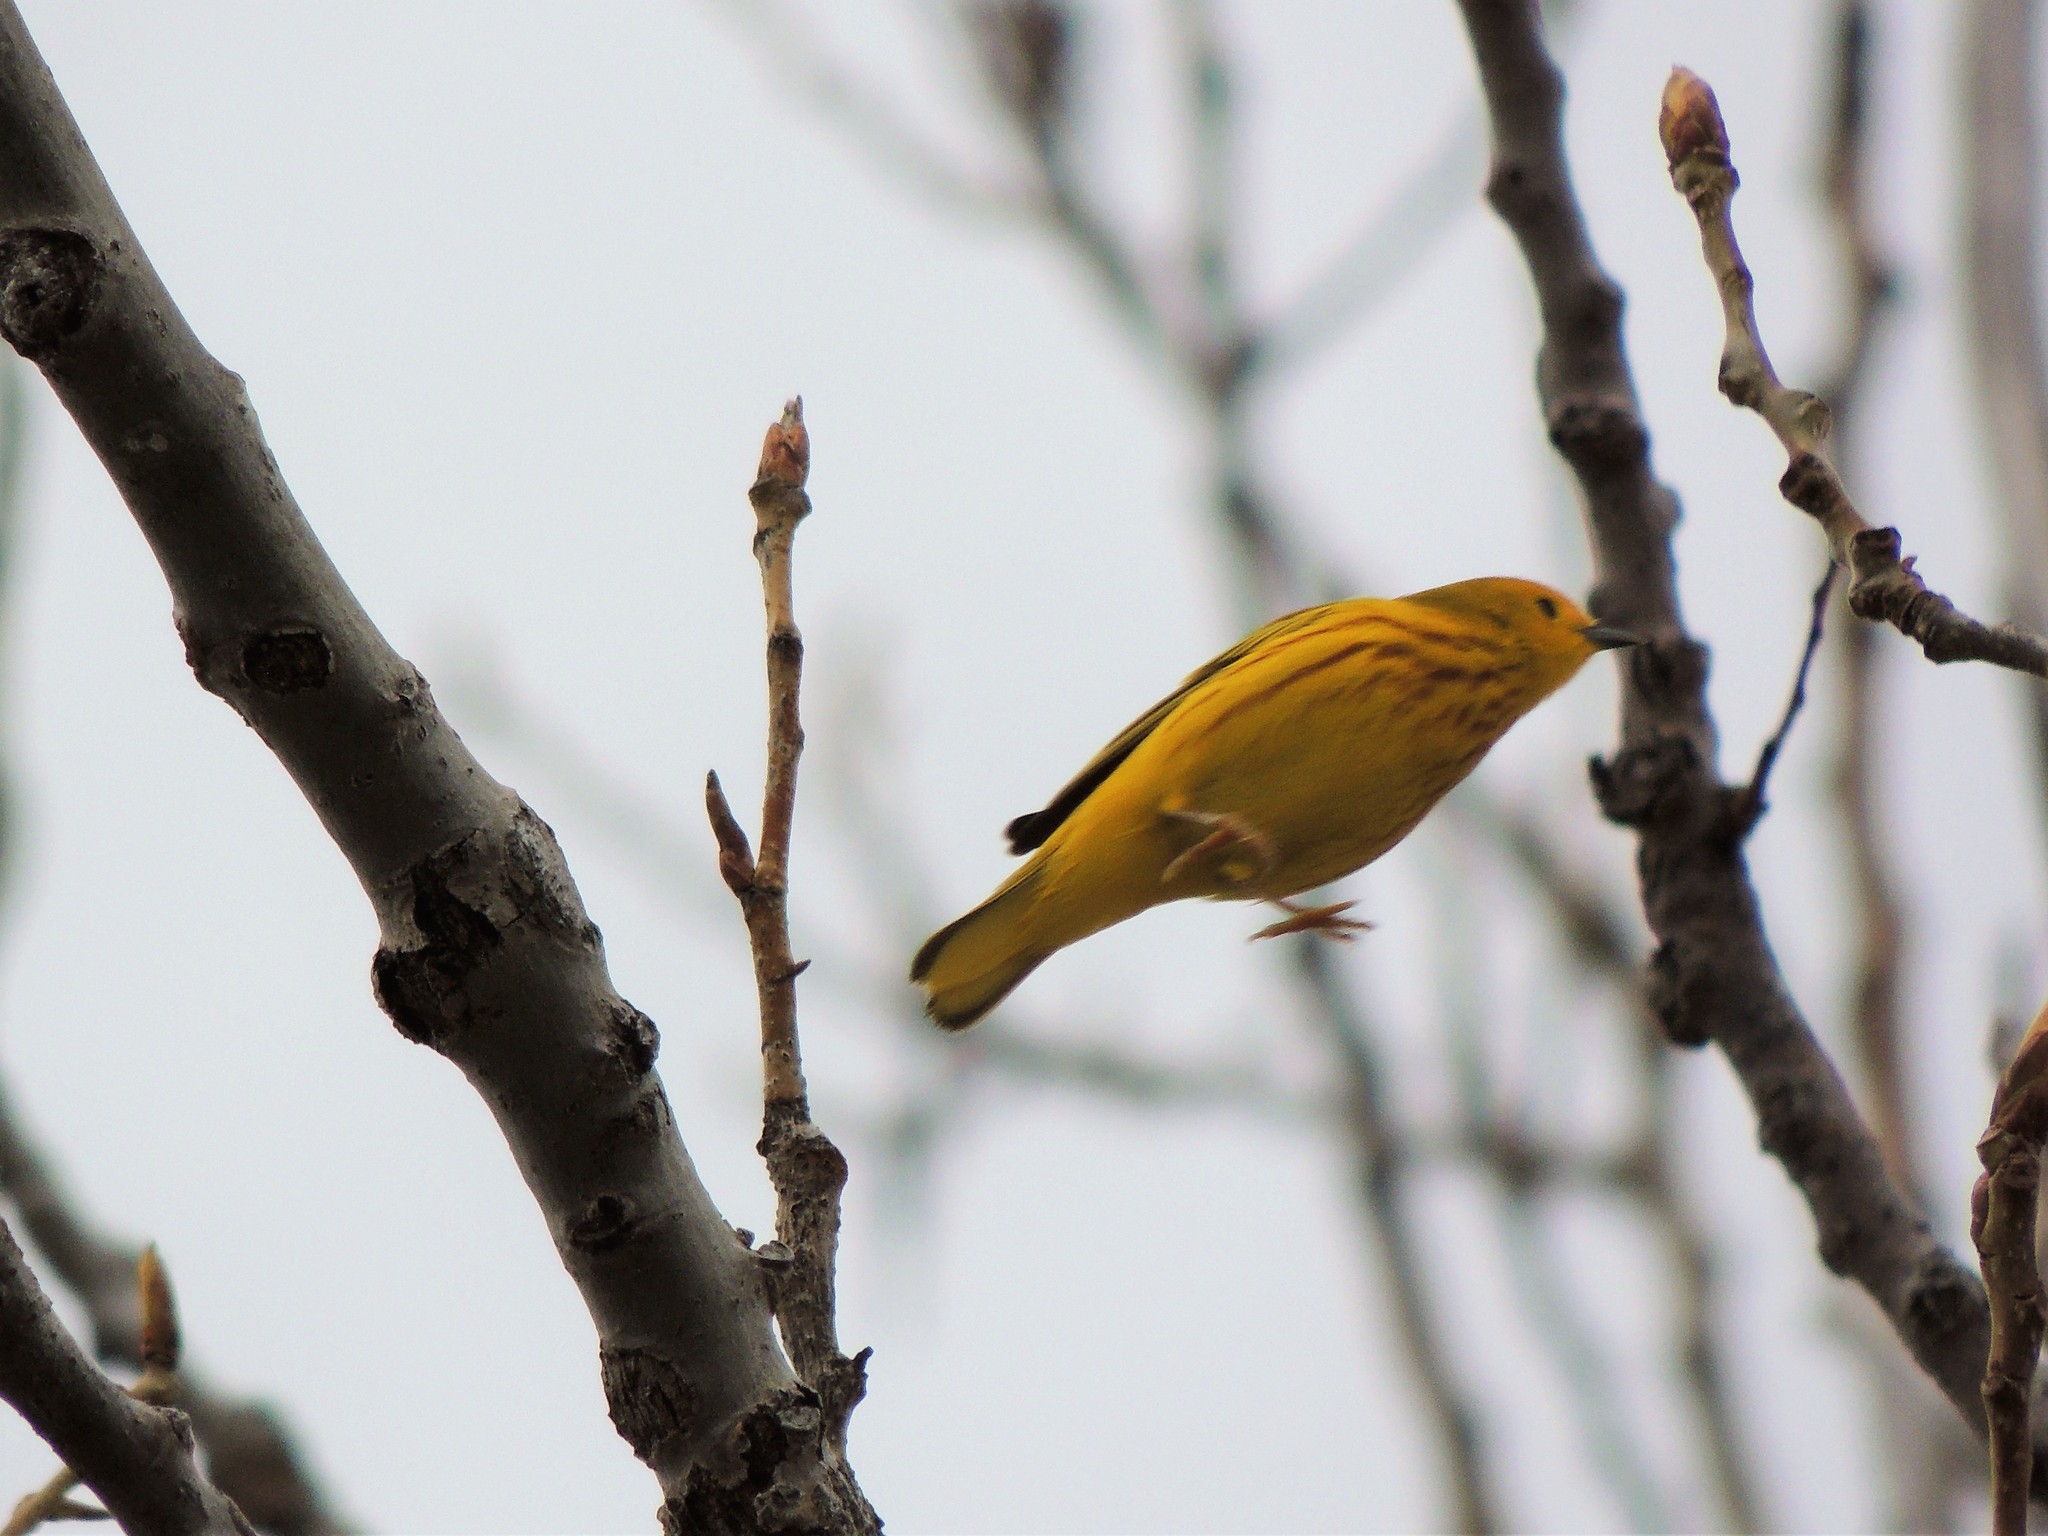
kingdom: Animalia
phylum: Chordata
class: Aves
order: Passeriformes
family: Parulidae
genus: Setophaga
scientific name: Setophaga petechia
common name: Yellow warbler
